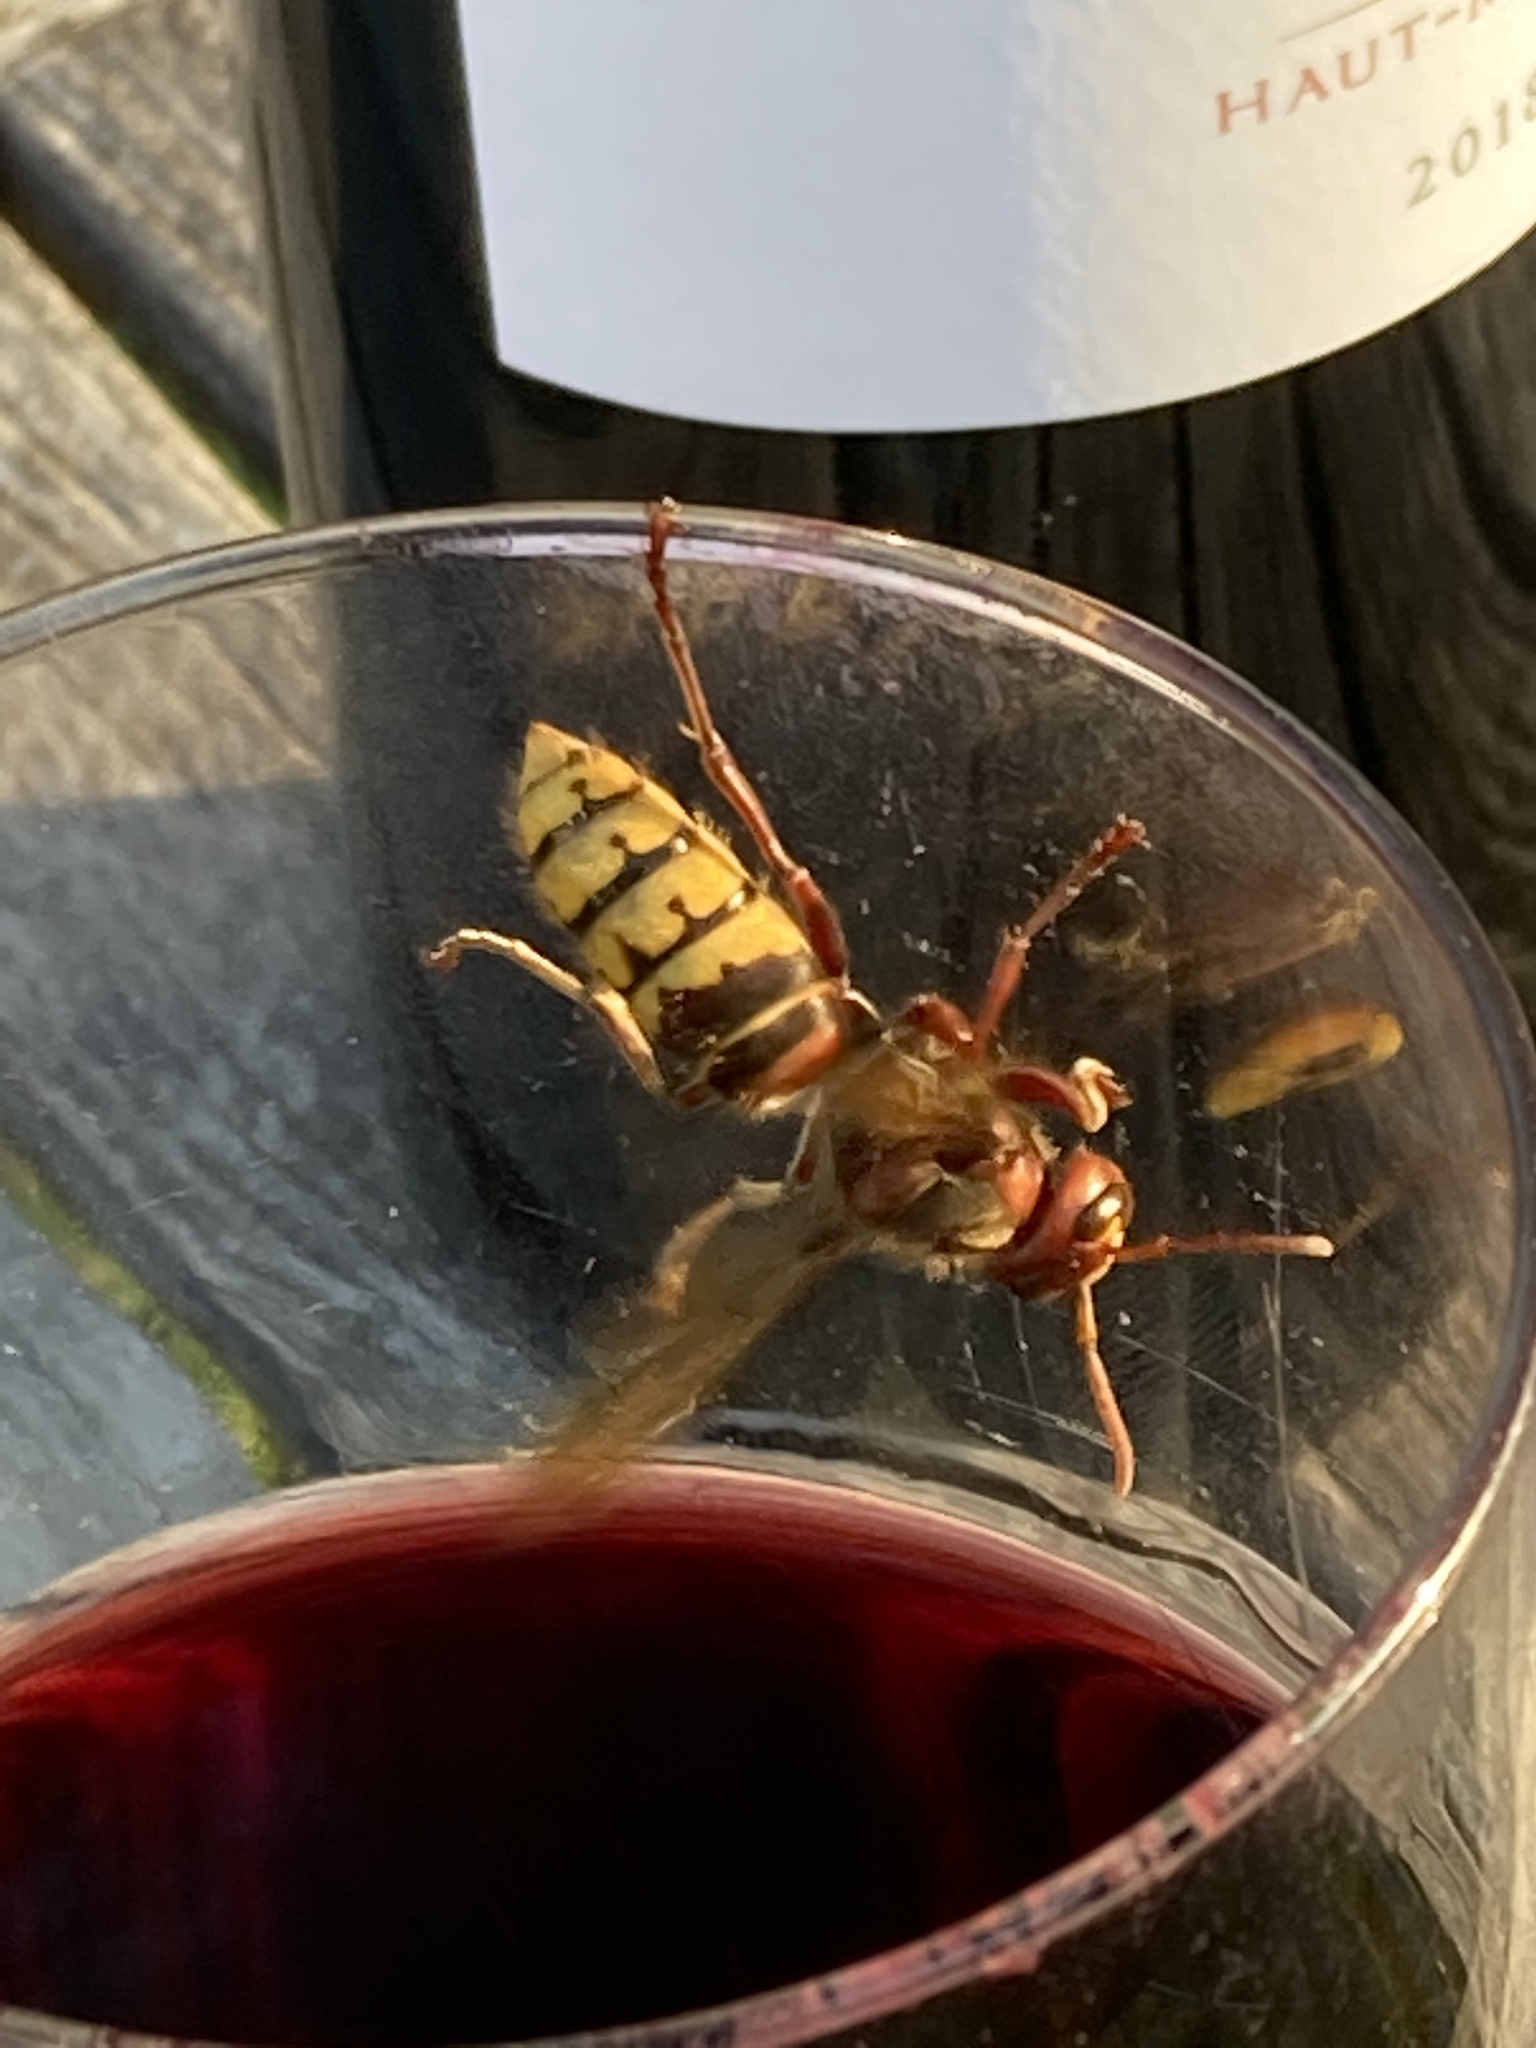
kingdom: Animalia
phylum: Arthropoda
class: Insecta
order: Hymenoptera
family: Vespidae
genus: Vespa
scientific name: Vespa crabro
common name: Hornet
